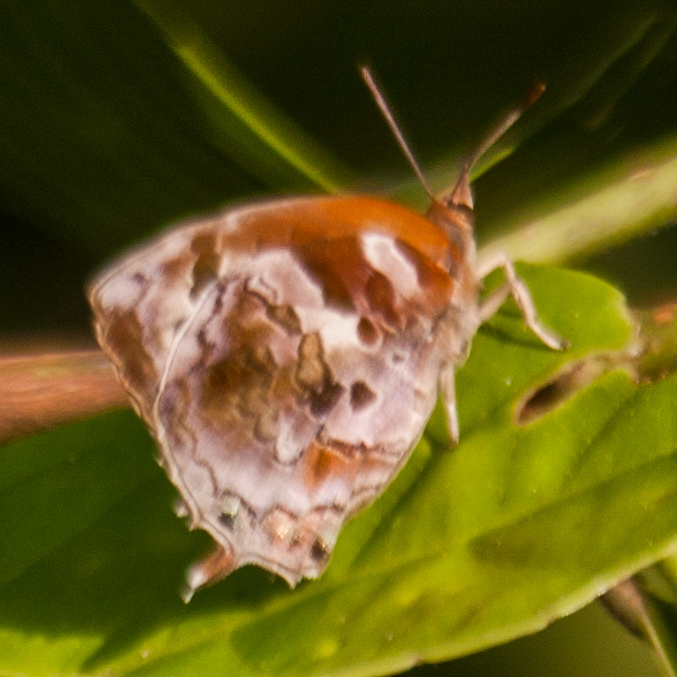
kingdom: Animalia
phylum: Arthropoda
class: Insecta
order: Lepidoptera
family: Lycaenidae
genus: Flos
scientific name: Flos
